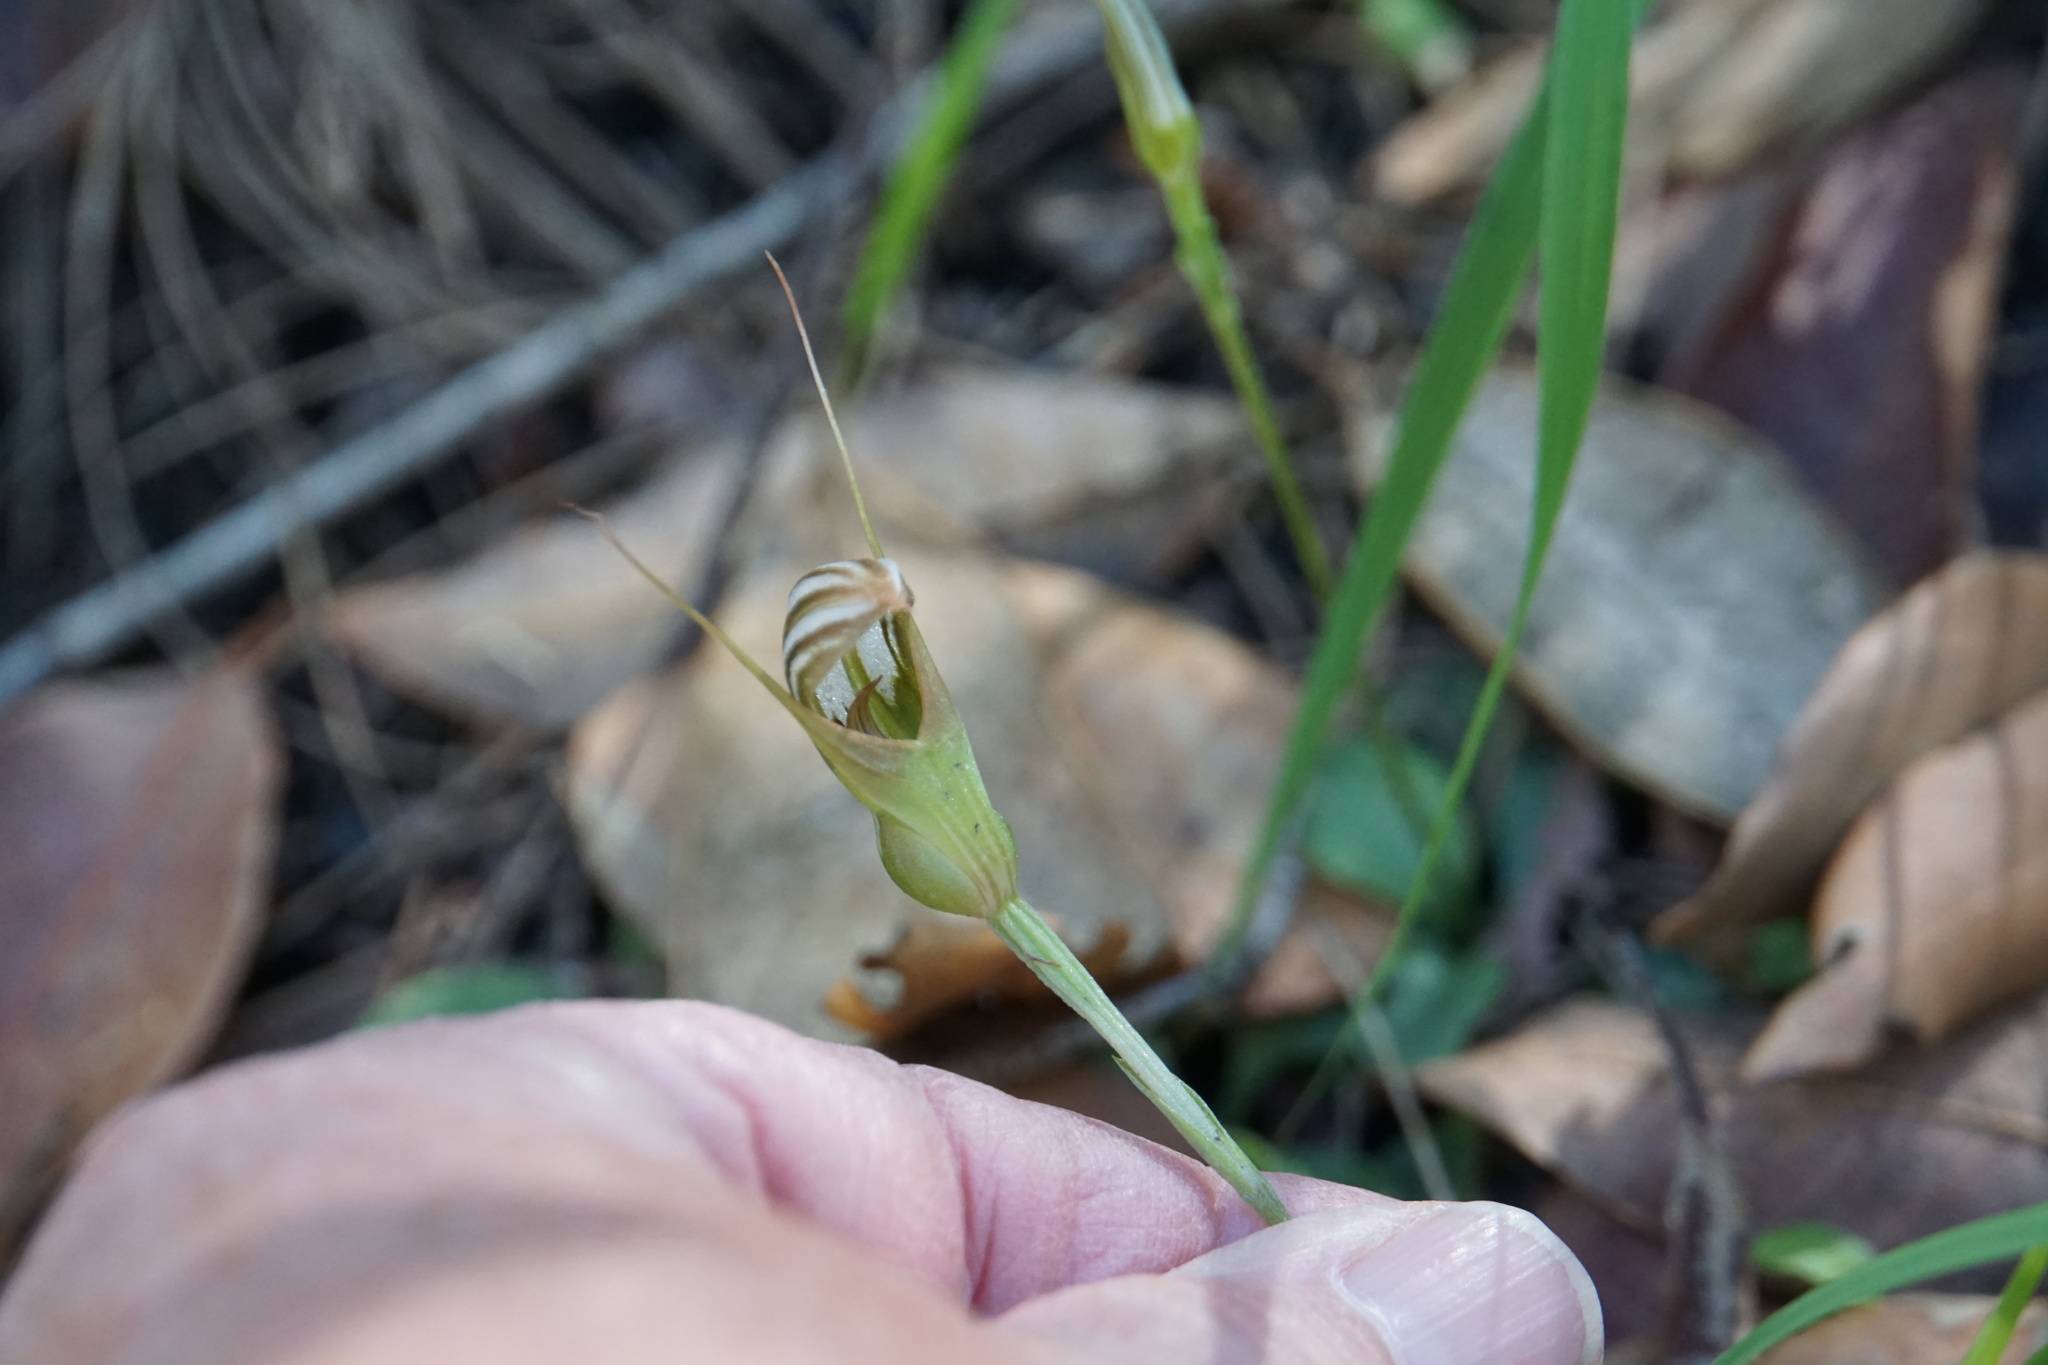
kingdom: Plantae
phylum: Tracheophyta
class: Liliopsida
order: Asparagales
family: Orchidaceae
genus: Pterostylis
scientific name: Pterostylis ophioglossa
